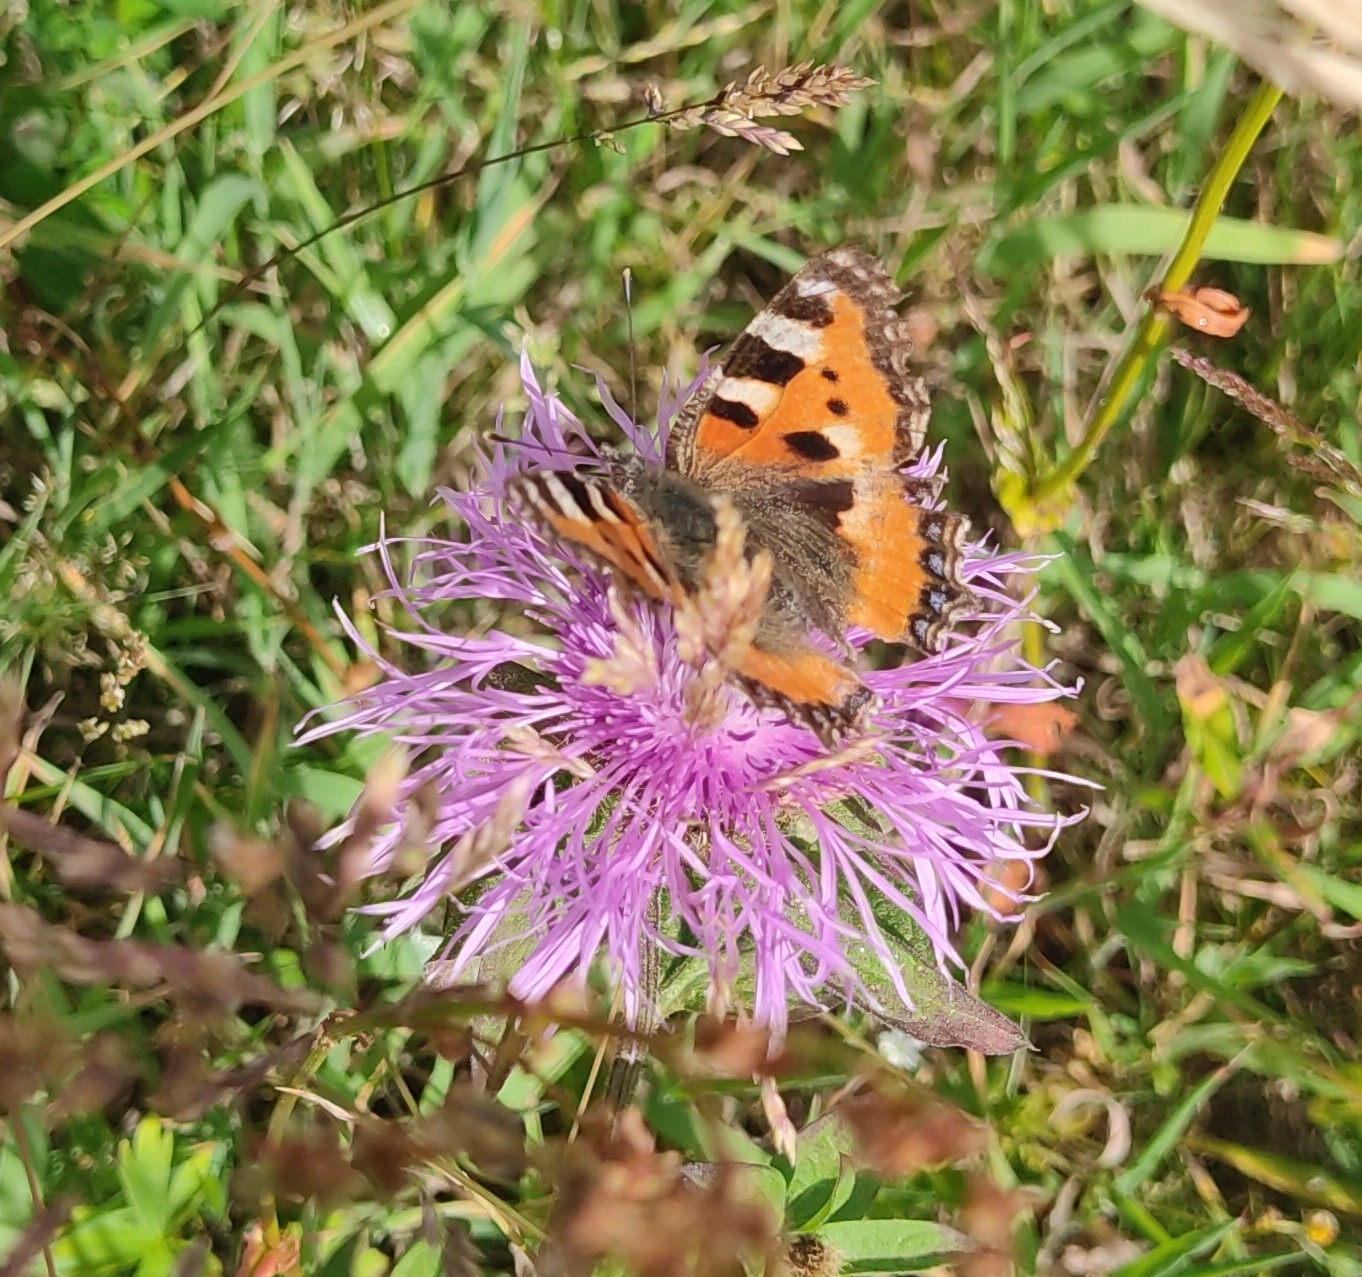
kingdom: Animalia
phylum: Arthropoda
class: Insecta
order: Lepidoptera
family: Nymphalidae
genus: Aglais
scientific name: Aglais urticae
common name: Small tortoiseshell
